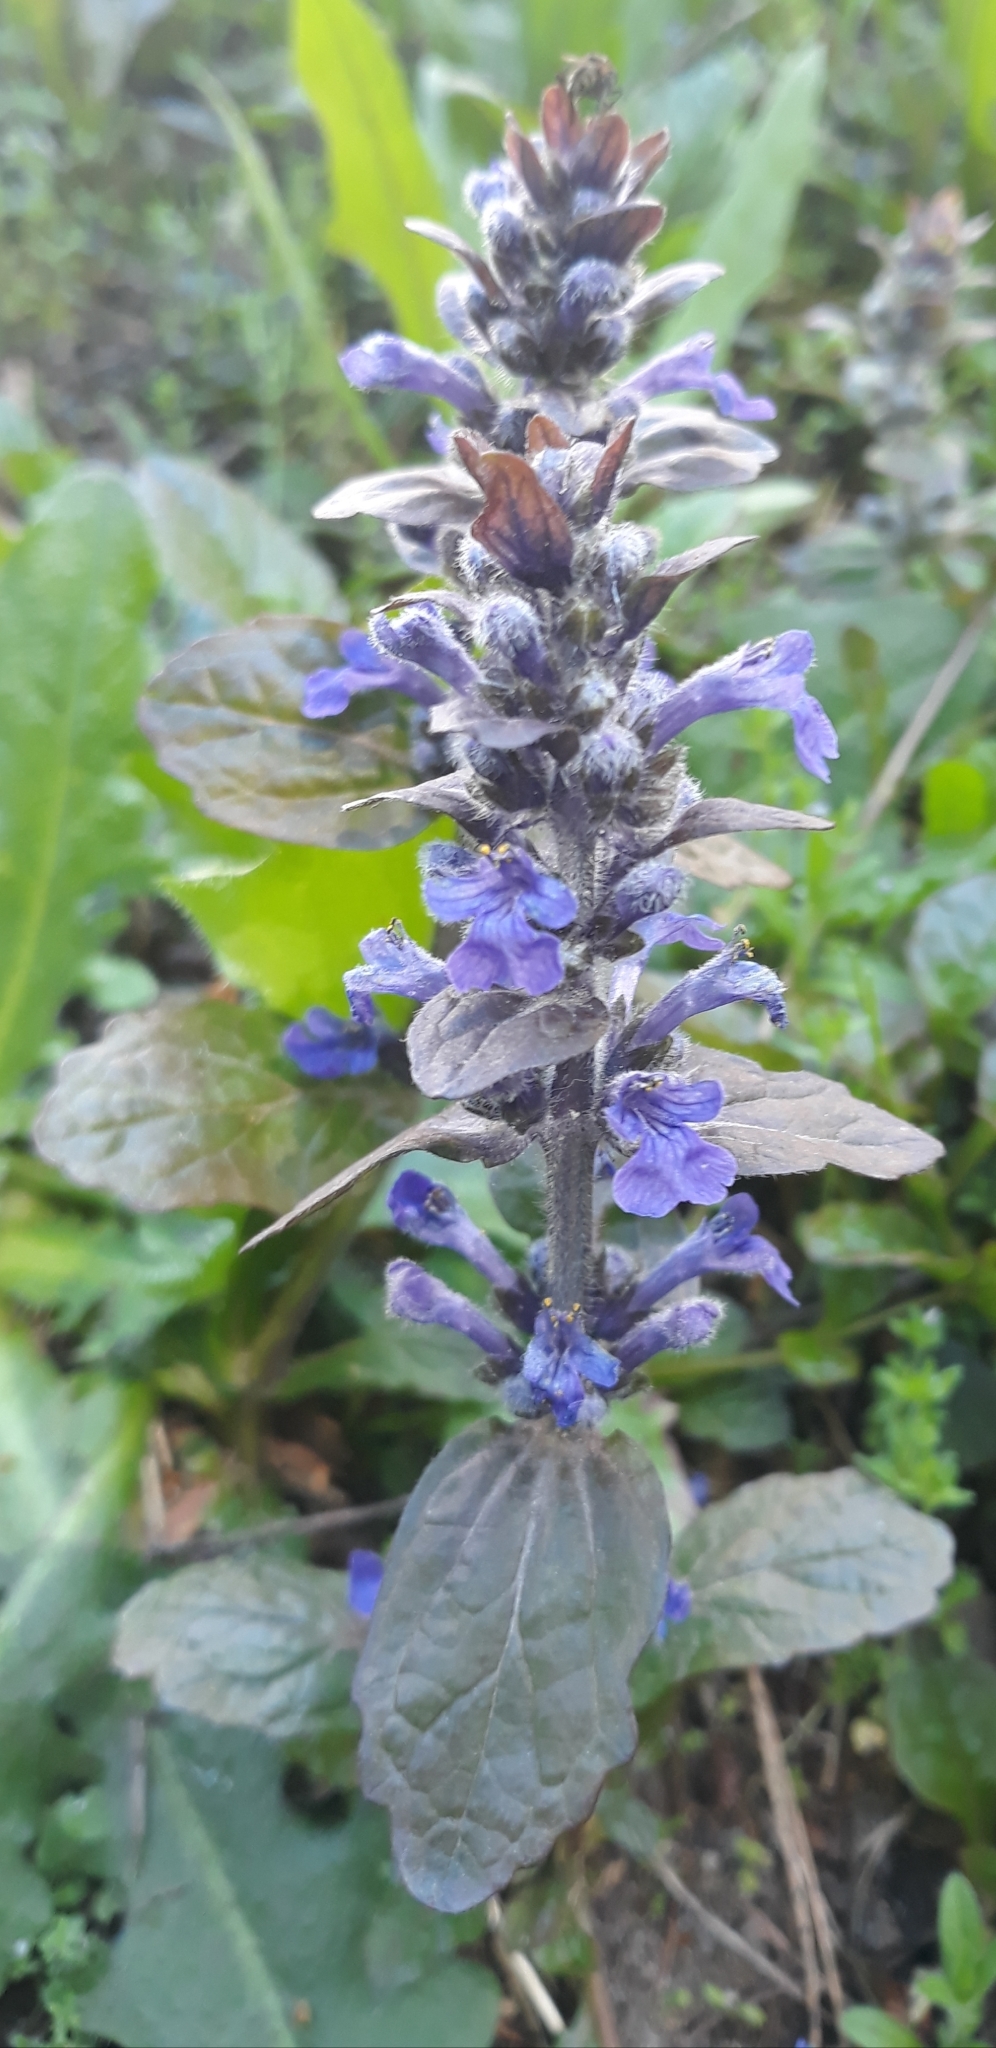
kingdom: Plantae
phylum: Tracheophyta
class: Magnoliopsida
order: Lamiales
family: Lamiaceae
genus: Ajuga
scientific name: Ajuga reptans
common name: Bugle
